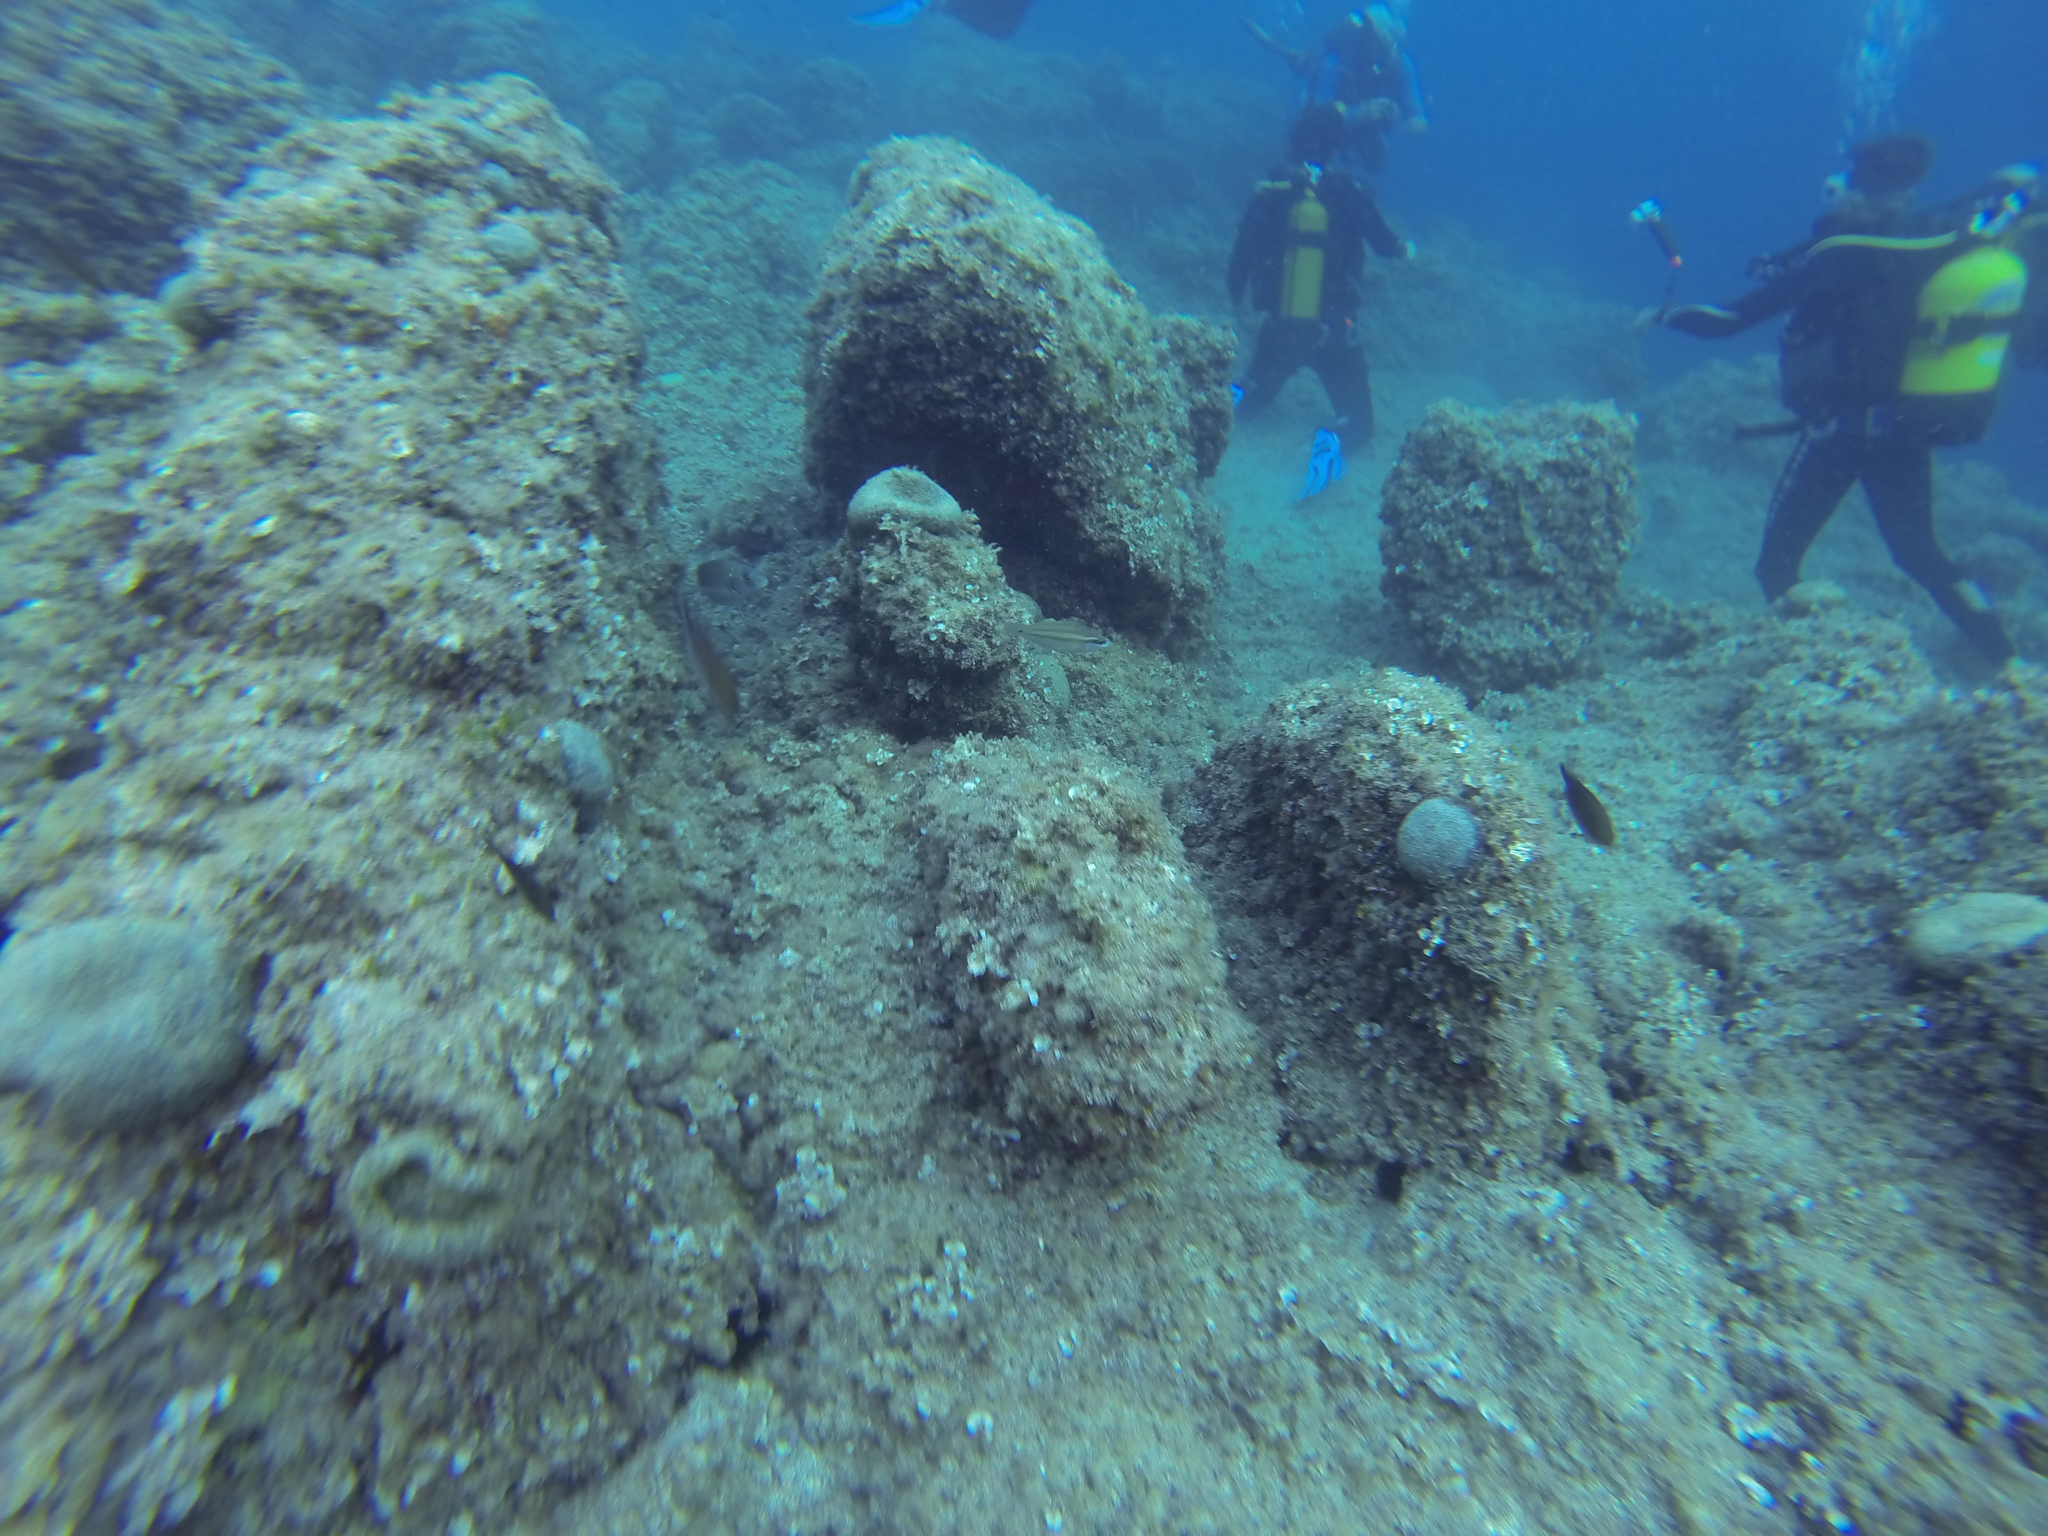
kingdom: Animalia
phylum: Chordata
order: Perciformes
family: Labridae
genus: Symphodus
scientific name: Symphodus tinca
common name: Peacock wrasse
